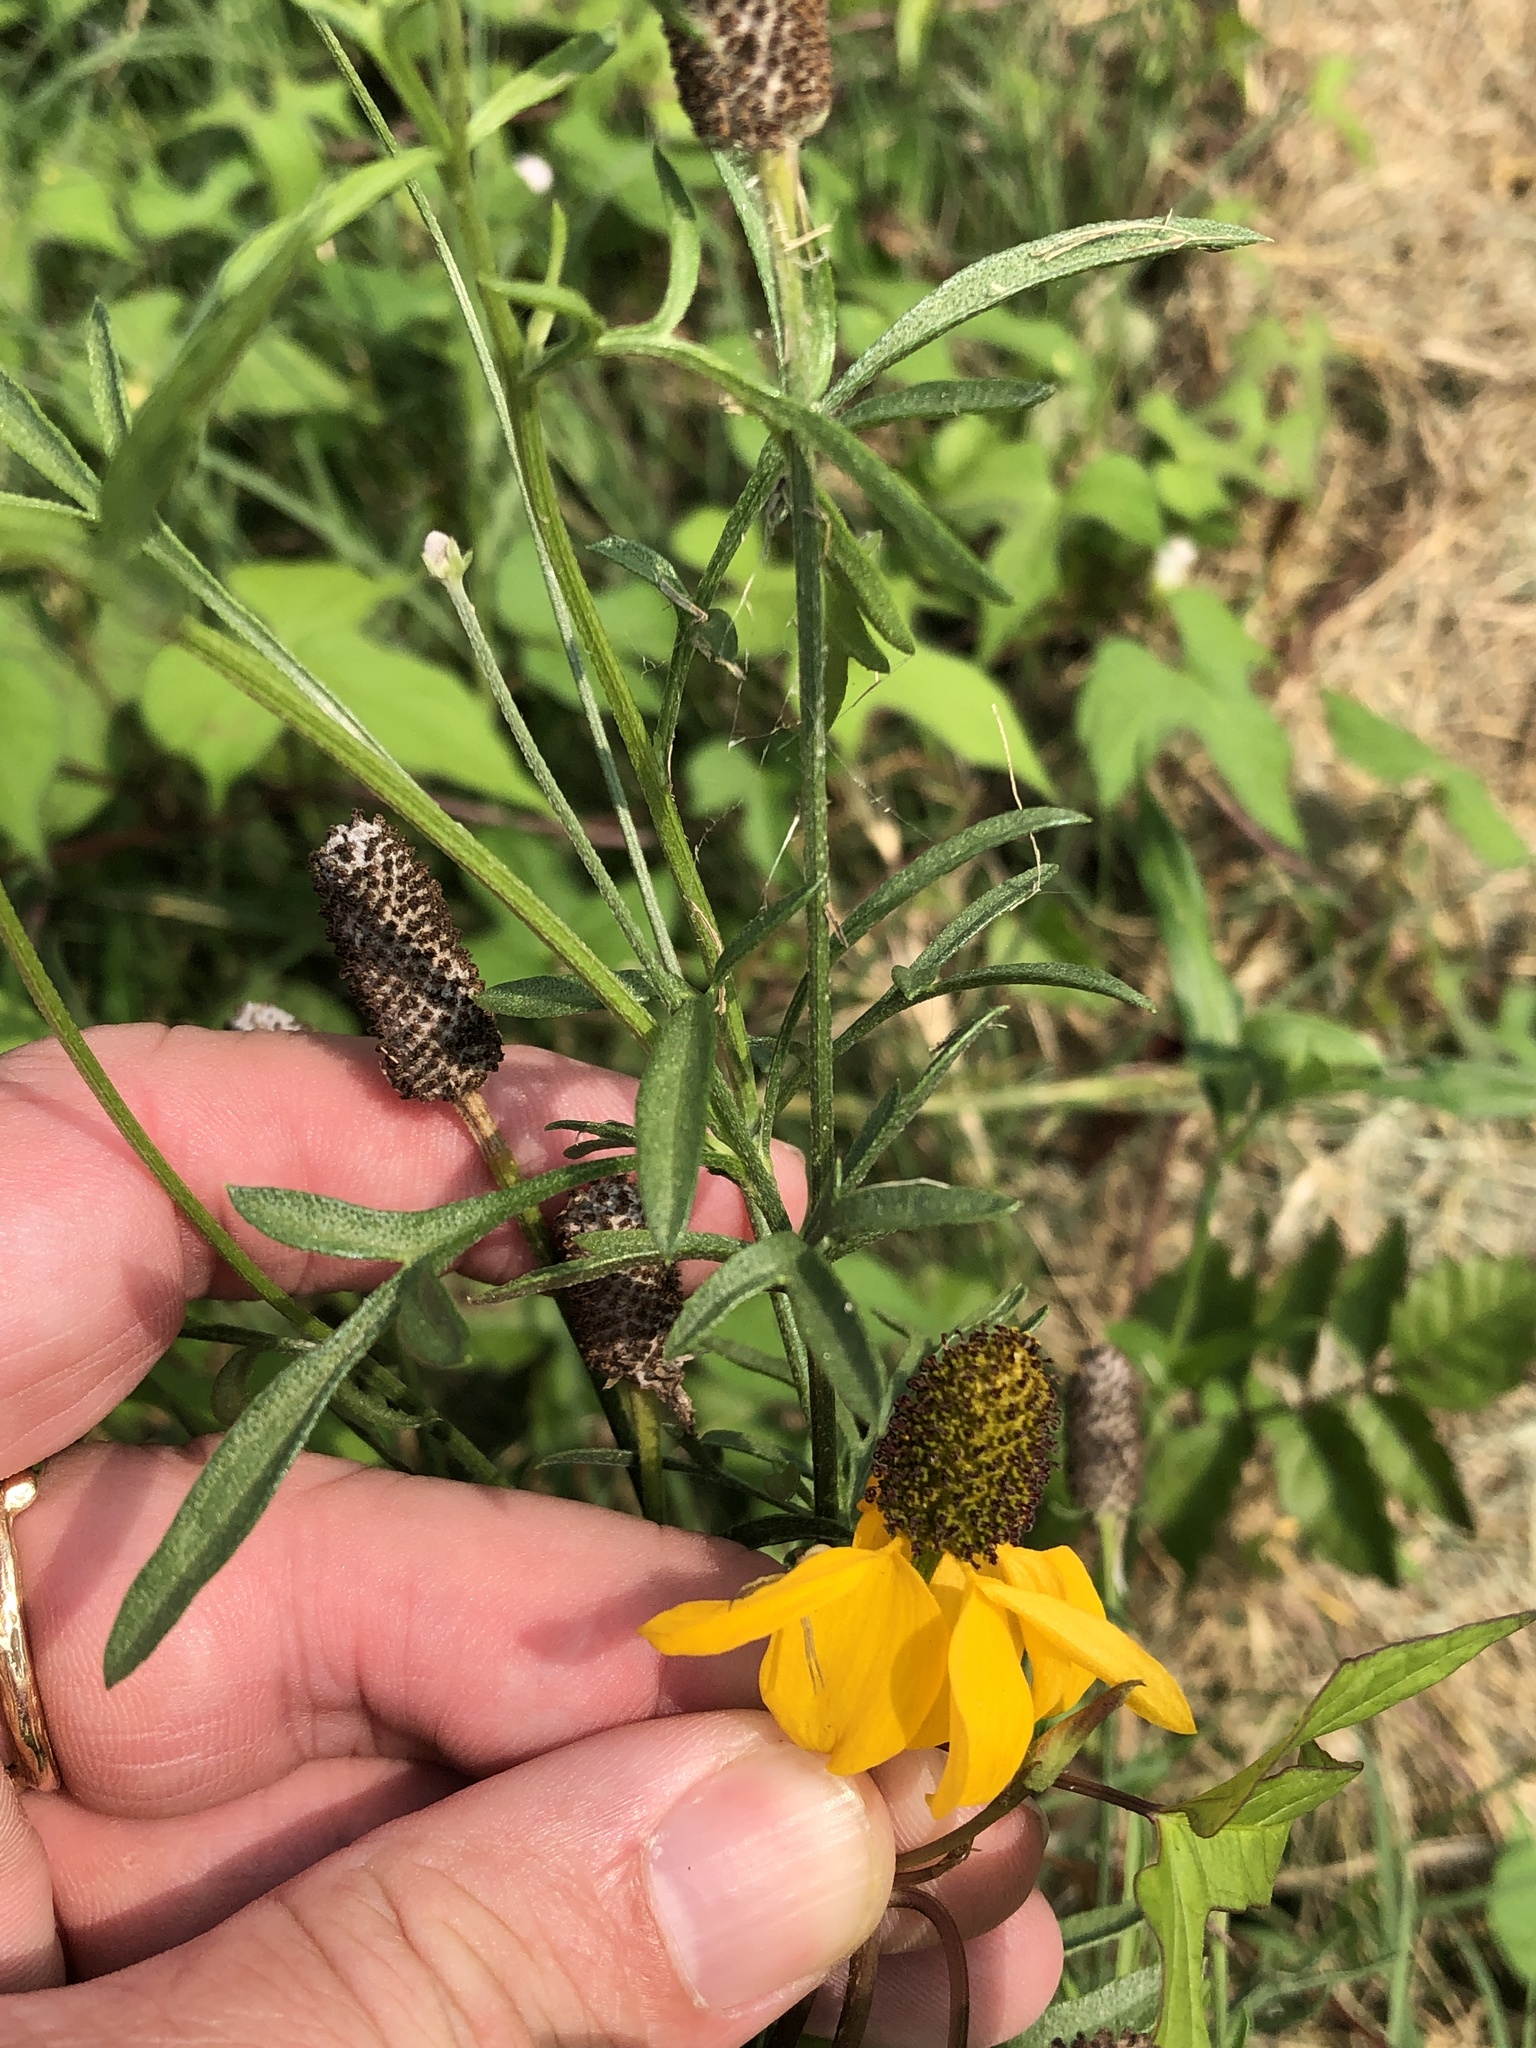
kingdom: Plantae
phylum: Tracheophyta
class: Magnoliopsida
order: Asterales
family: Asteraceae
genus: Ratibida
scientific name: Ratibida columnifera
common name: Prairie coneflower
